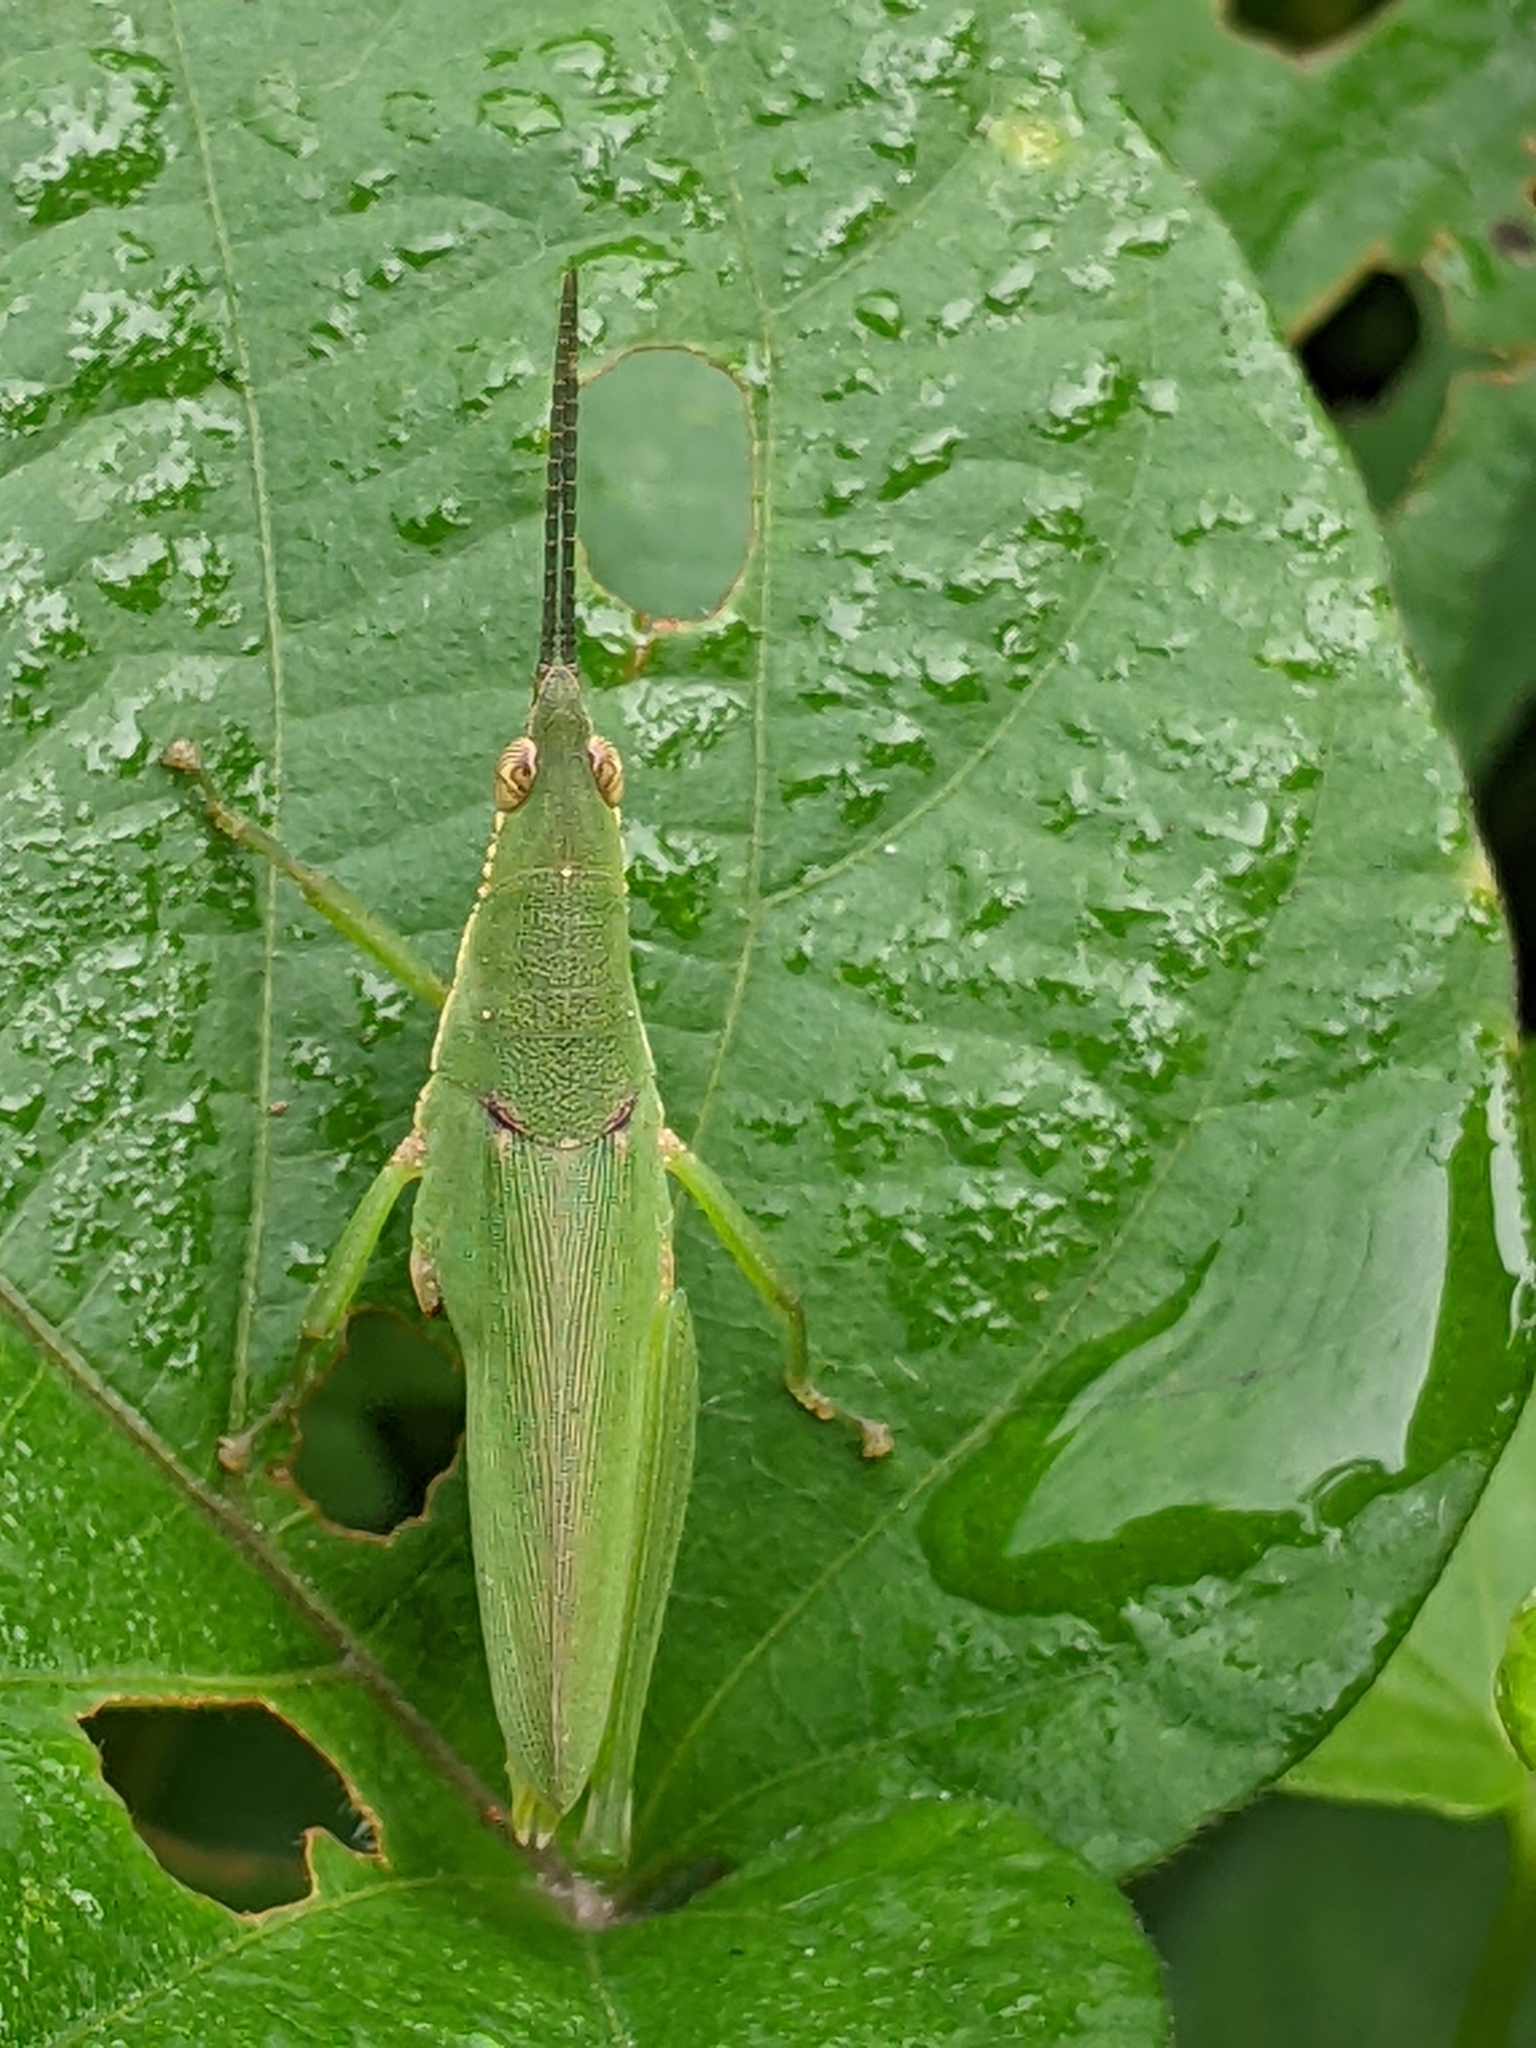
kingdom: Animalia
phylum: Arthropoda
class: Insecta
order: Orthoptera
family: Pyrgomorphidae
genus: Tagasta
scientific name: Tagasta marginella
